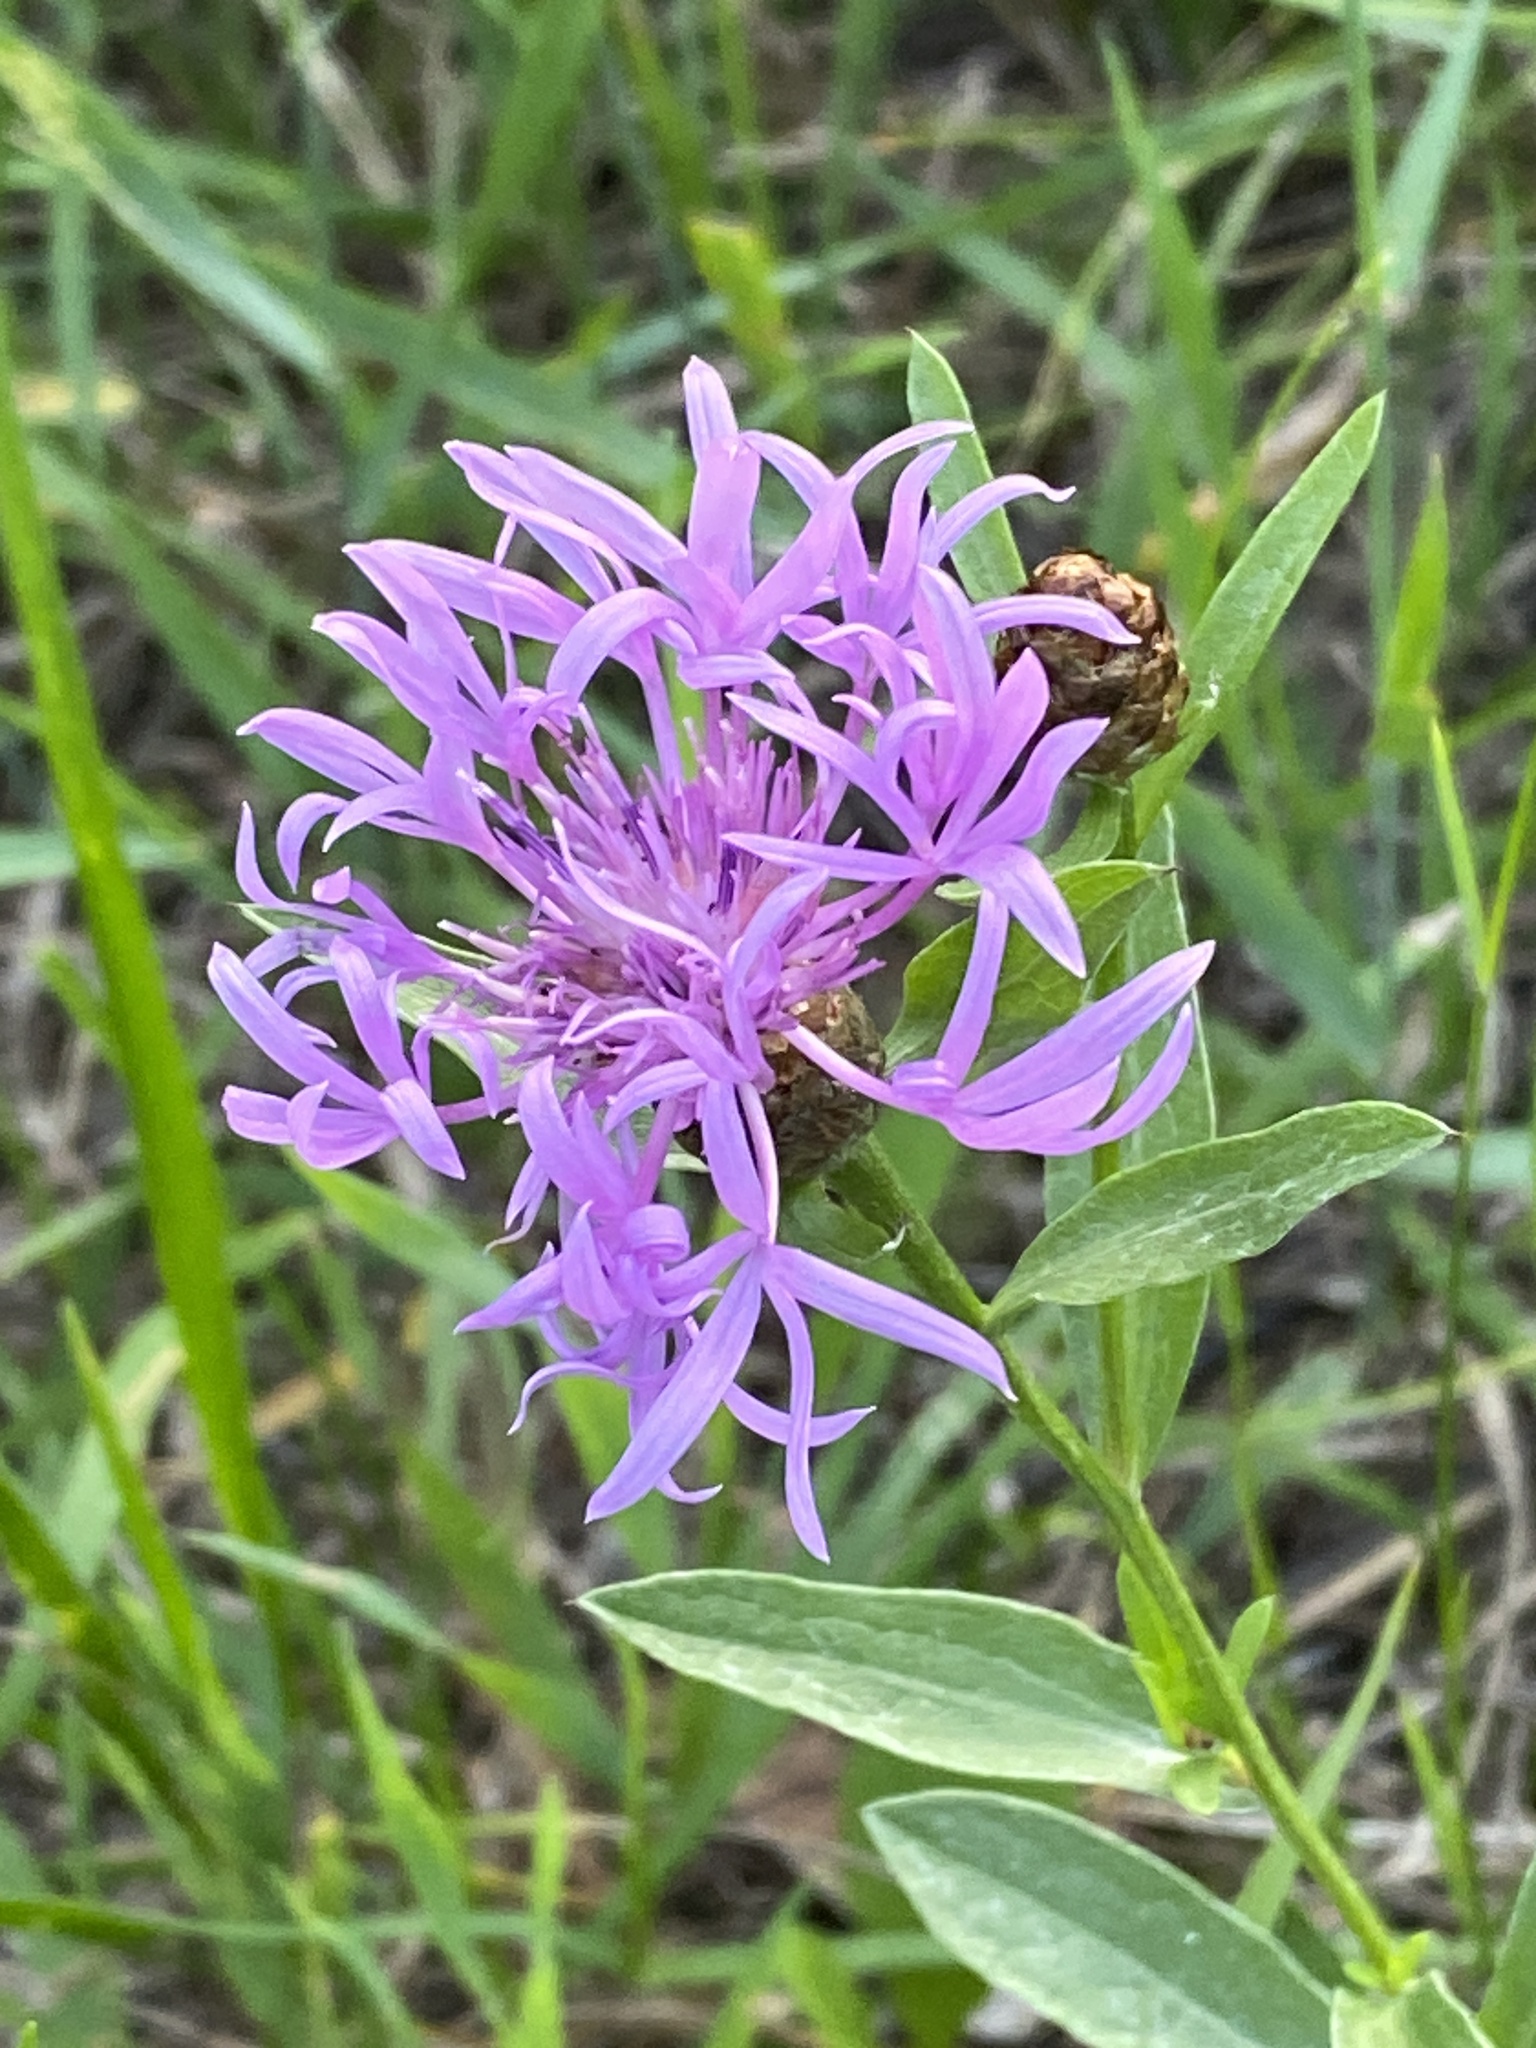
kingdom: Plantae
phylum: Tracheophyta
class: Magnoliopsida
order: Asterales
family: Asteraceae
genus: Centaurea
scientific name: Centaurea jacea
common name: Brown knapweed
